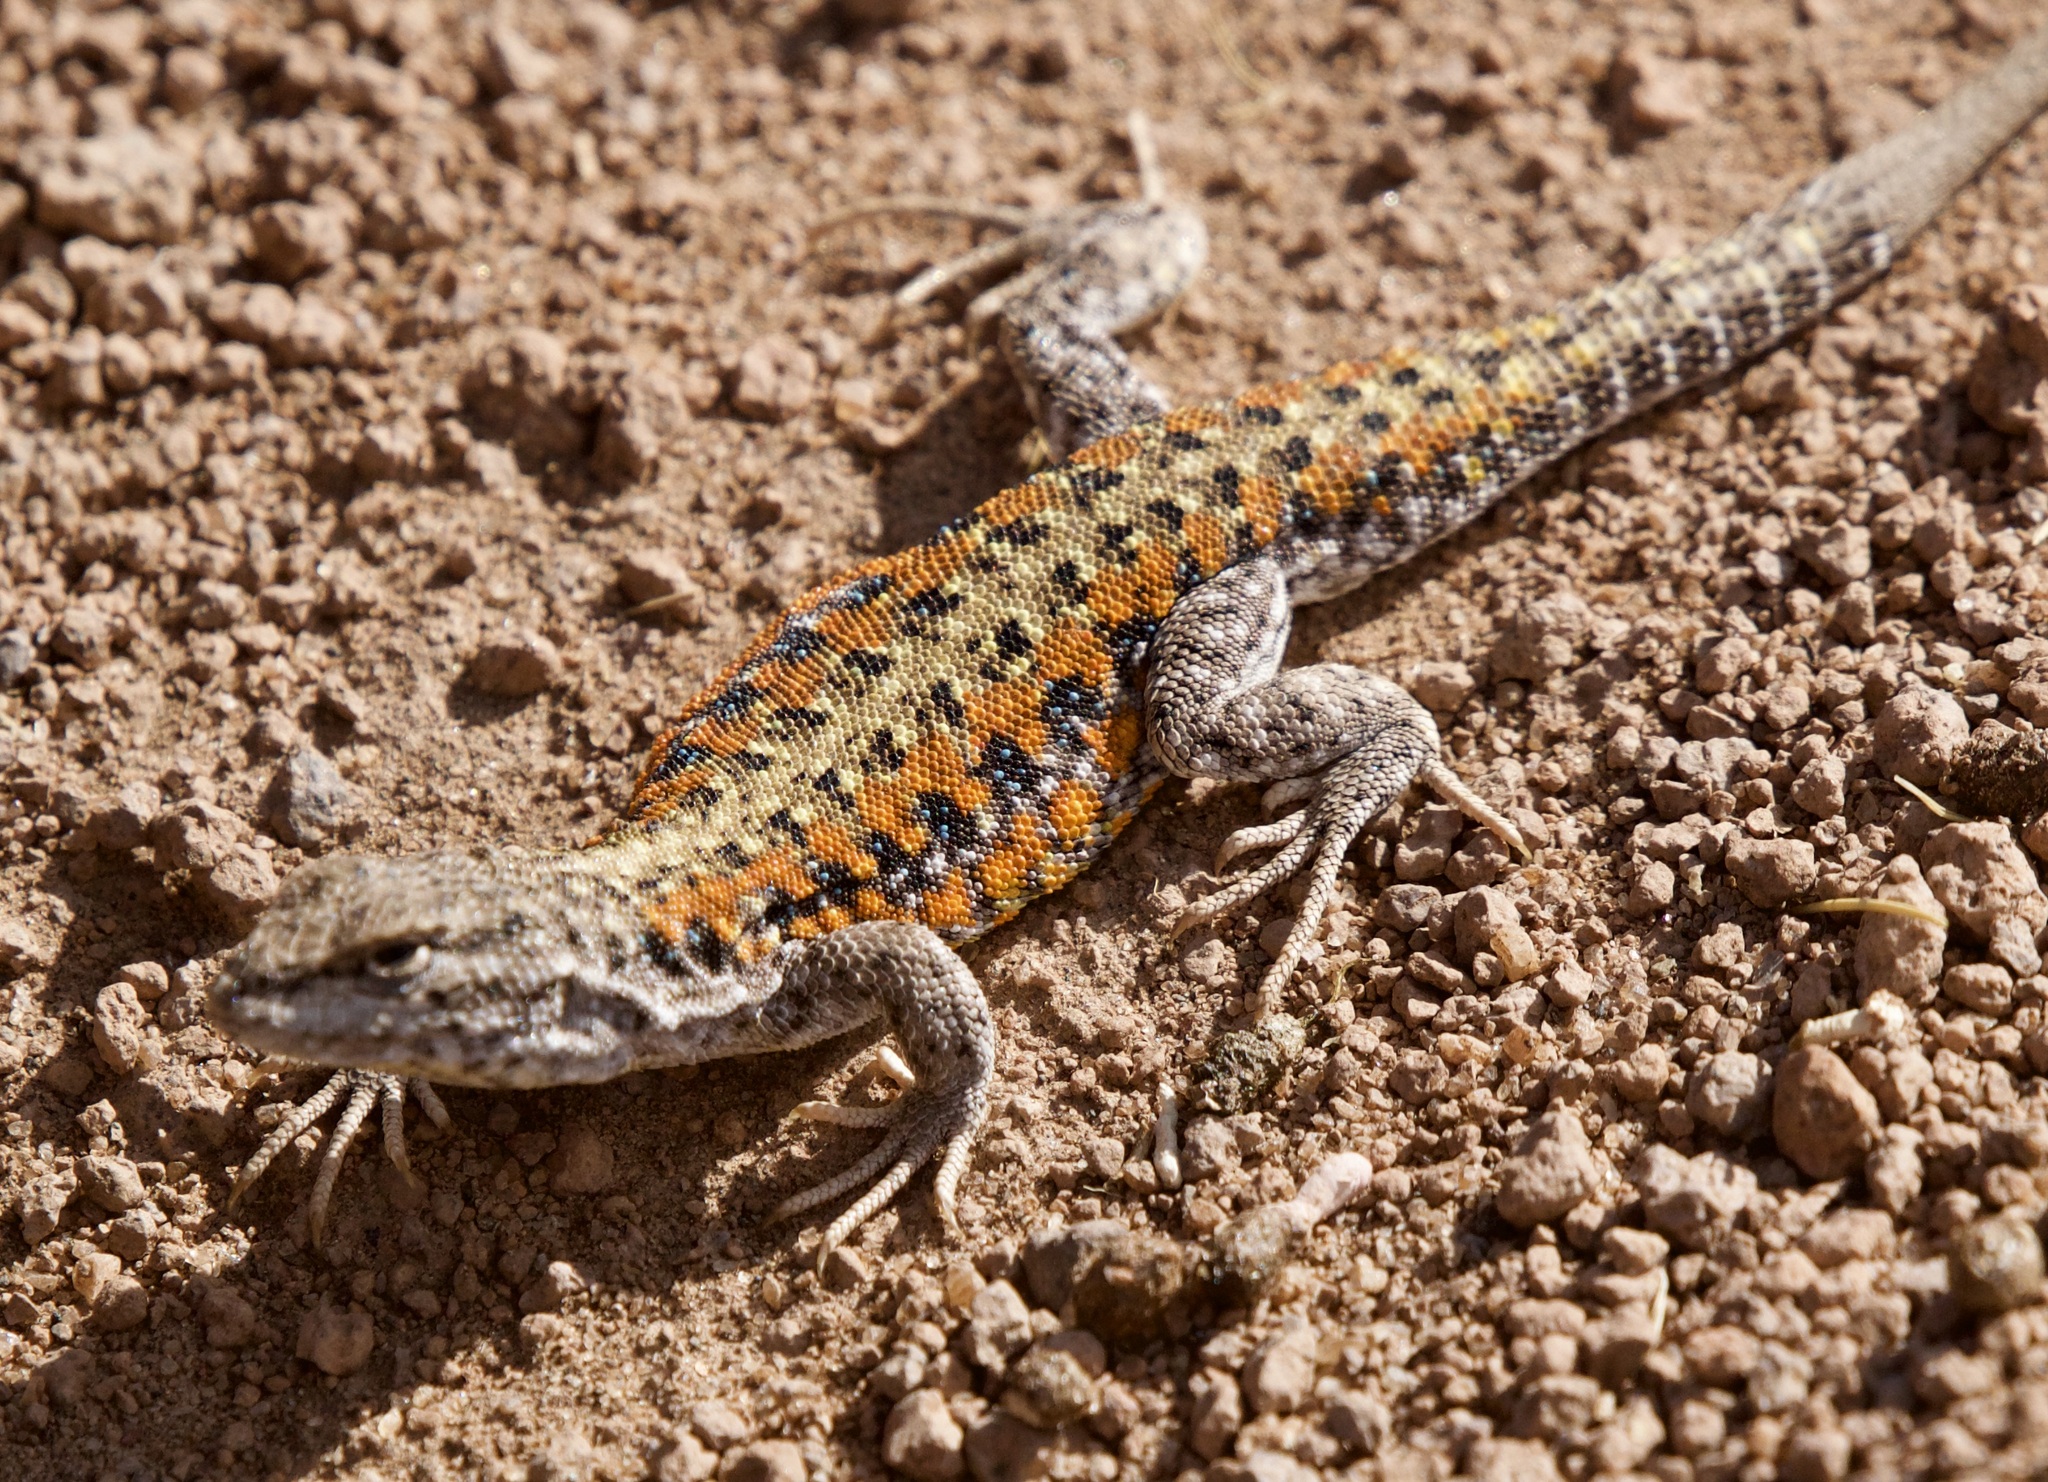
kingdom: Animalia
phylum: Chordata
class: Squamata
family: Liolaemidae
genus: Liolaemus
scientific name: Liolaemus omorfi
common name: Beautiful lizard
